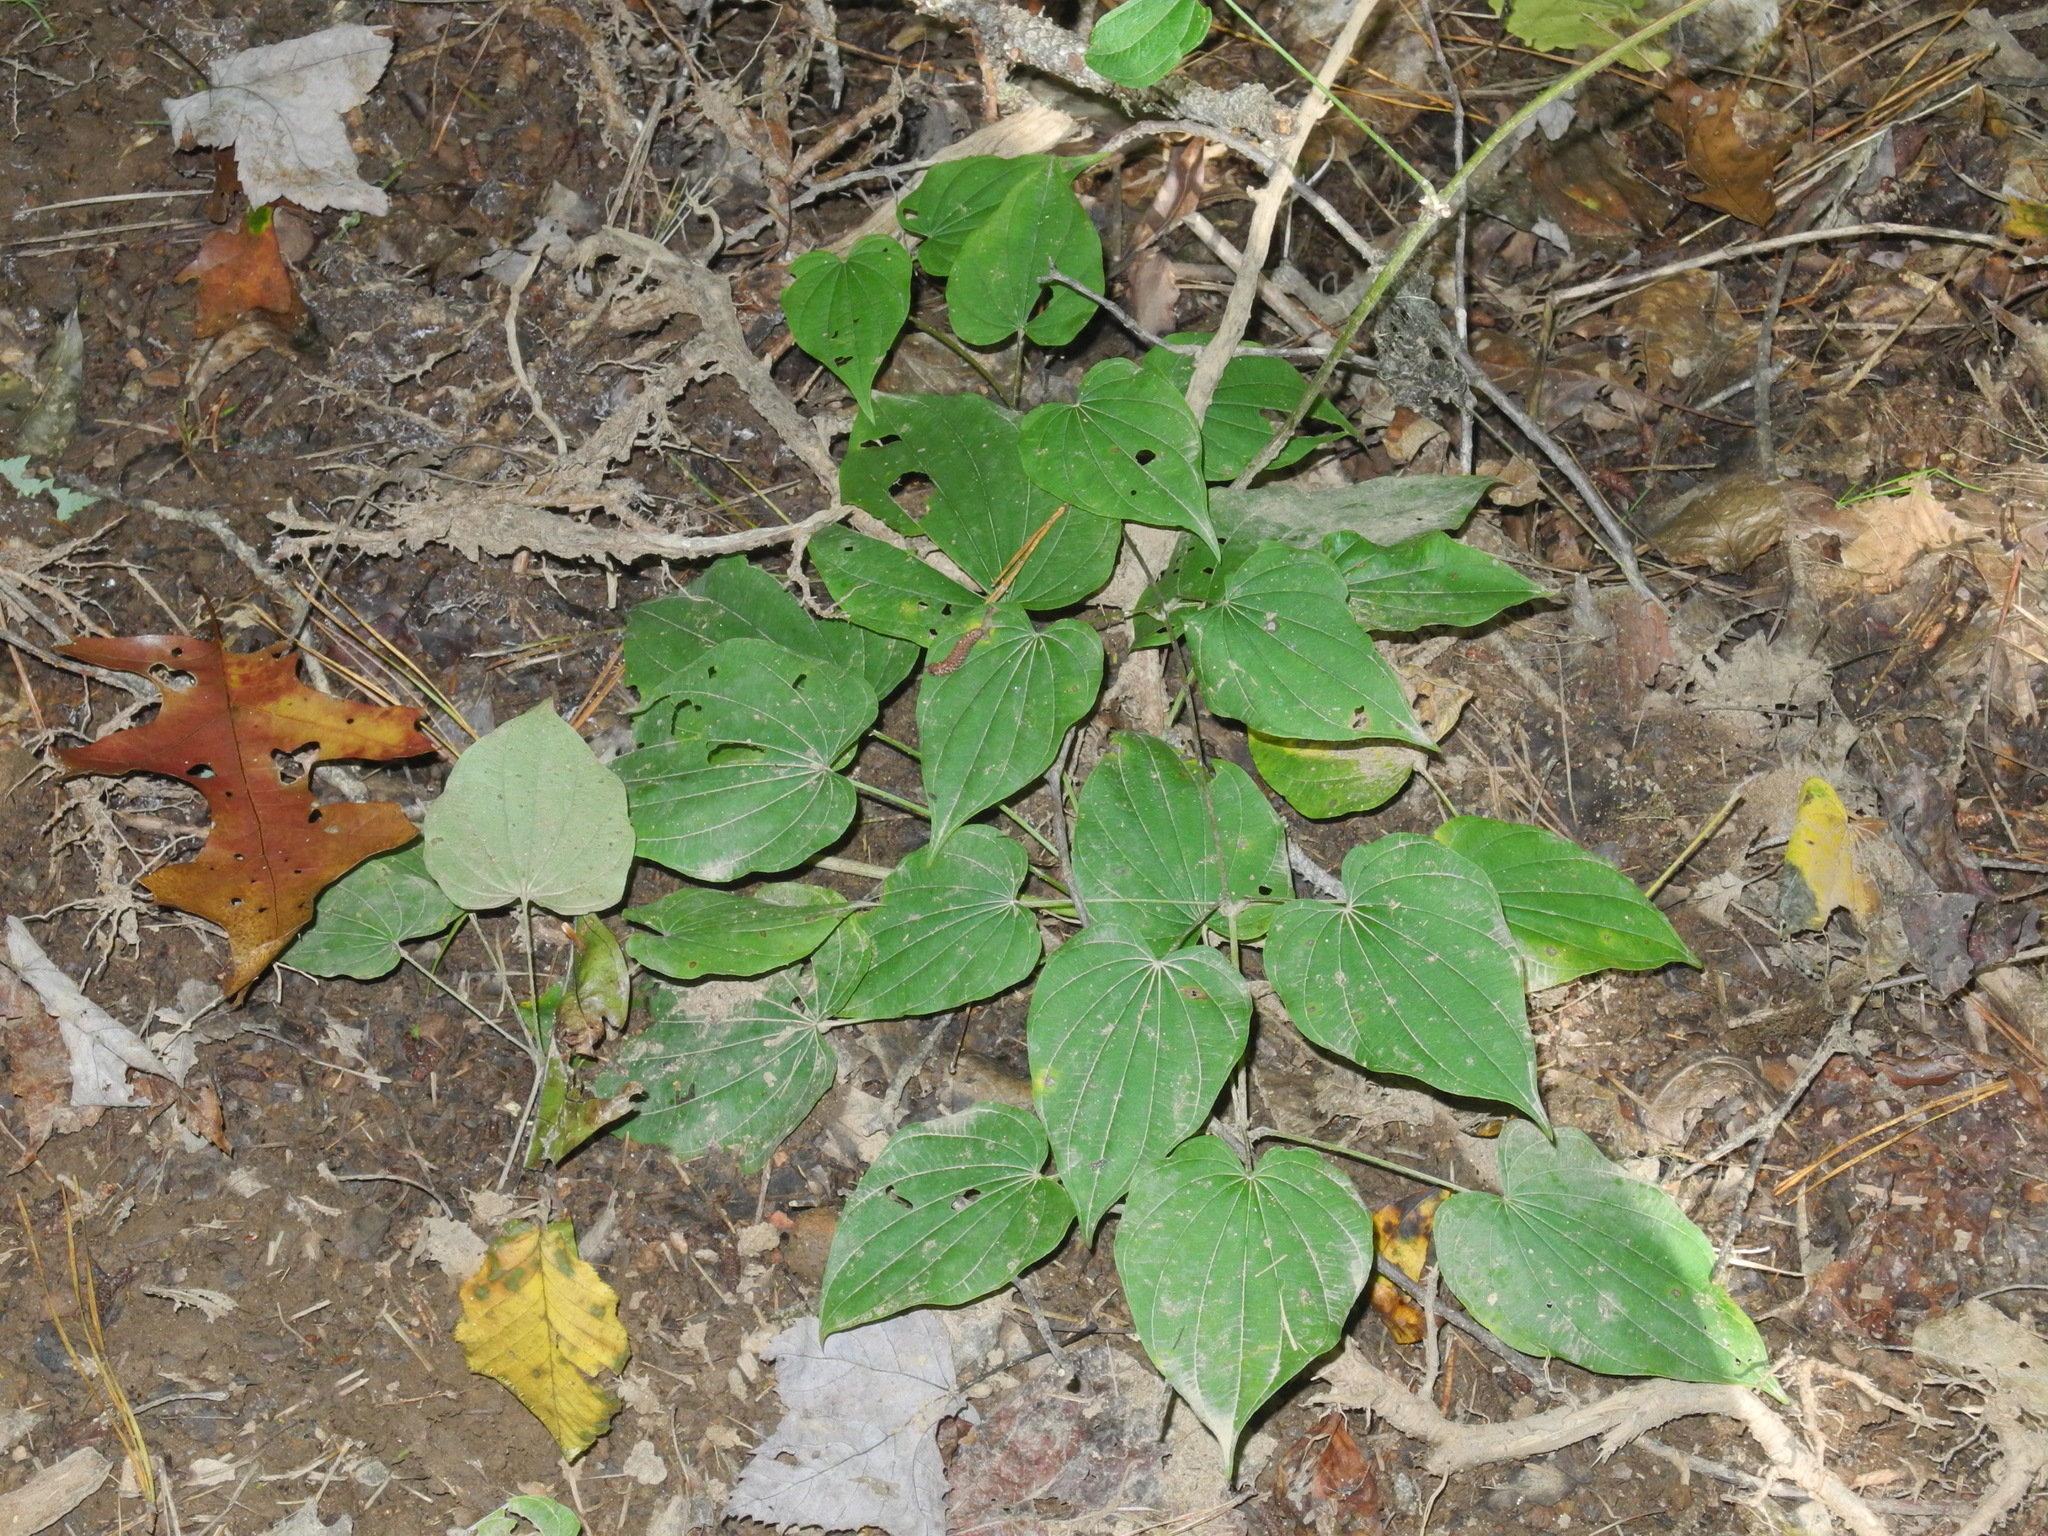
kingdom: Plantae
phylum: Tracheophyta
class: Liliopsida
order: Dioscoreales
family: Dioscoreaceae
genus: Dioscorea
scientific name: Dioscorea villosa
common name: Wild yam
